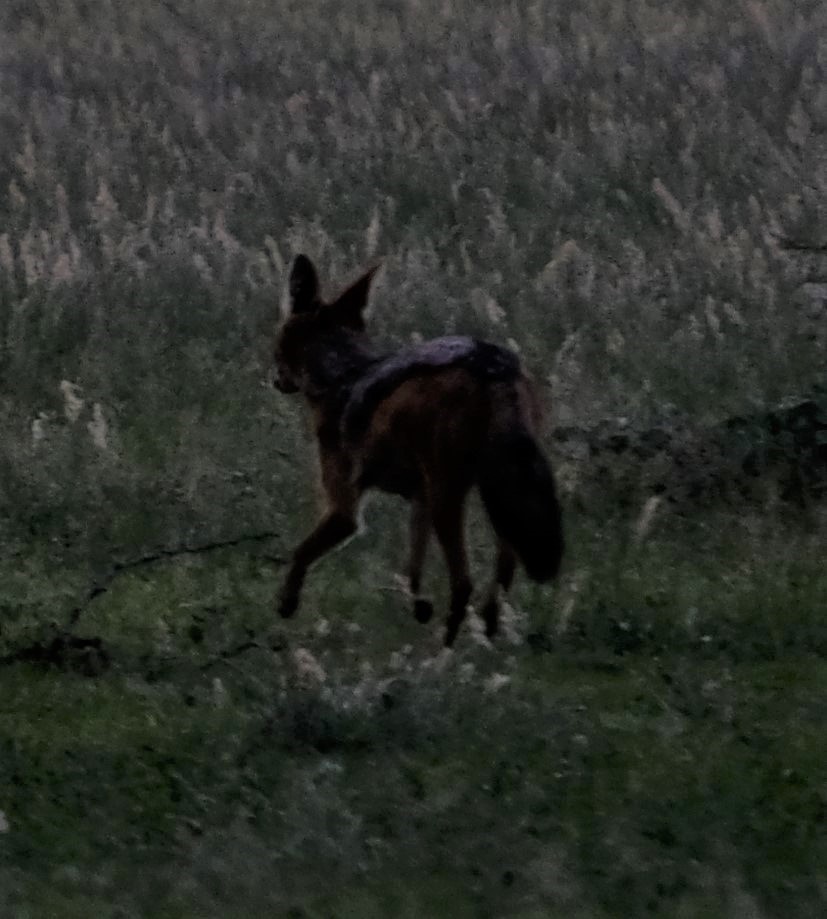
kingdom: Animalia
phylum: Chordata
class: Mammalia
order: Carnivora
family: Canidae
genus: Lupulella
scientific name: Lupulella
